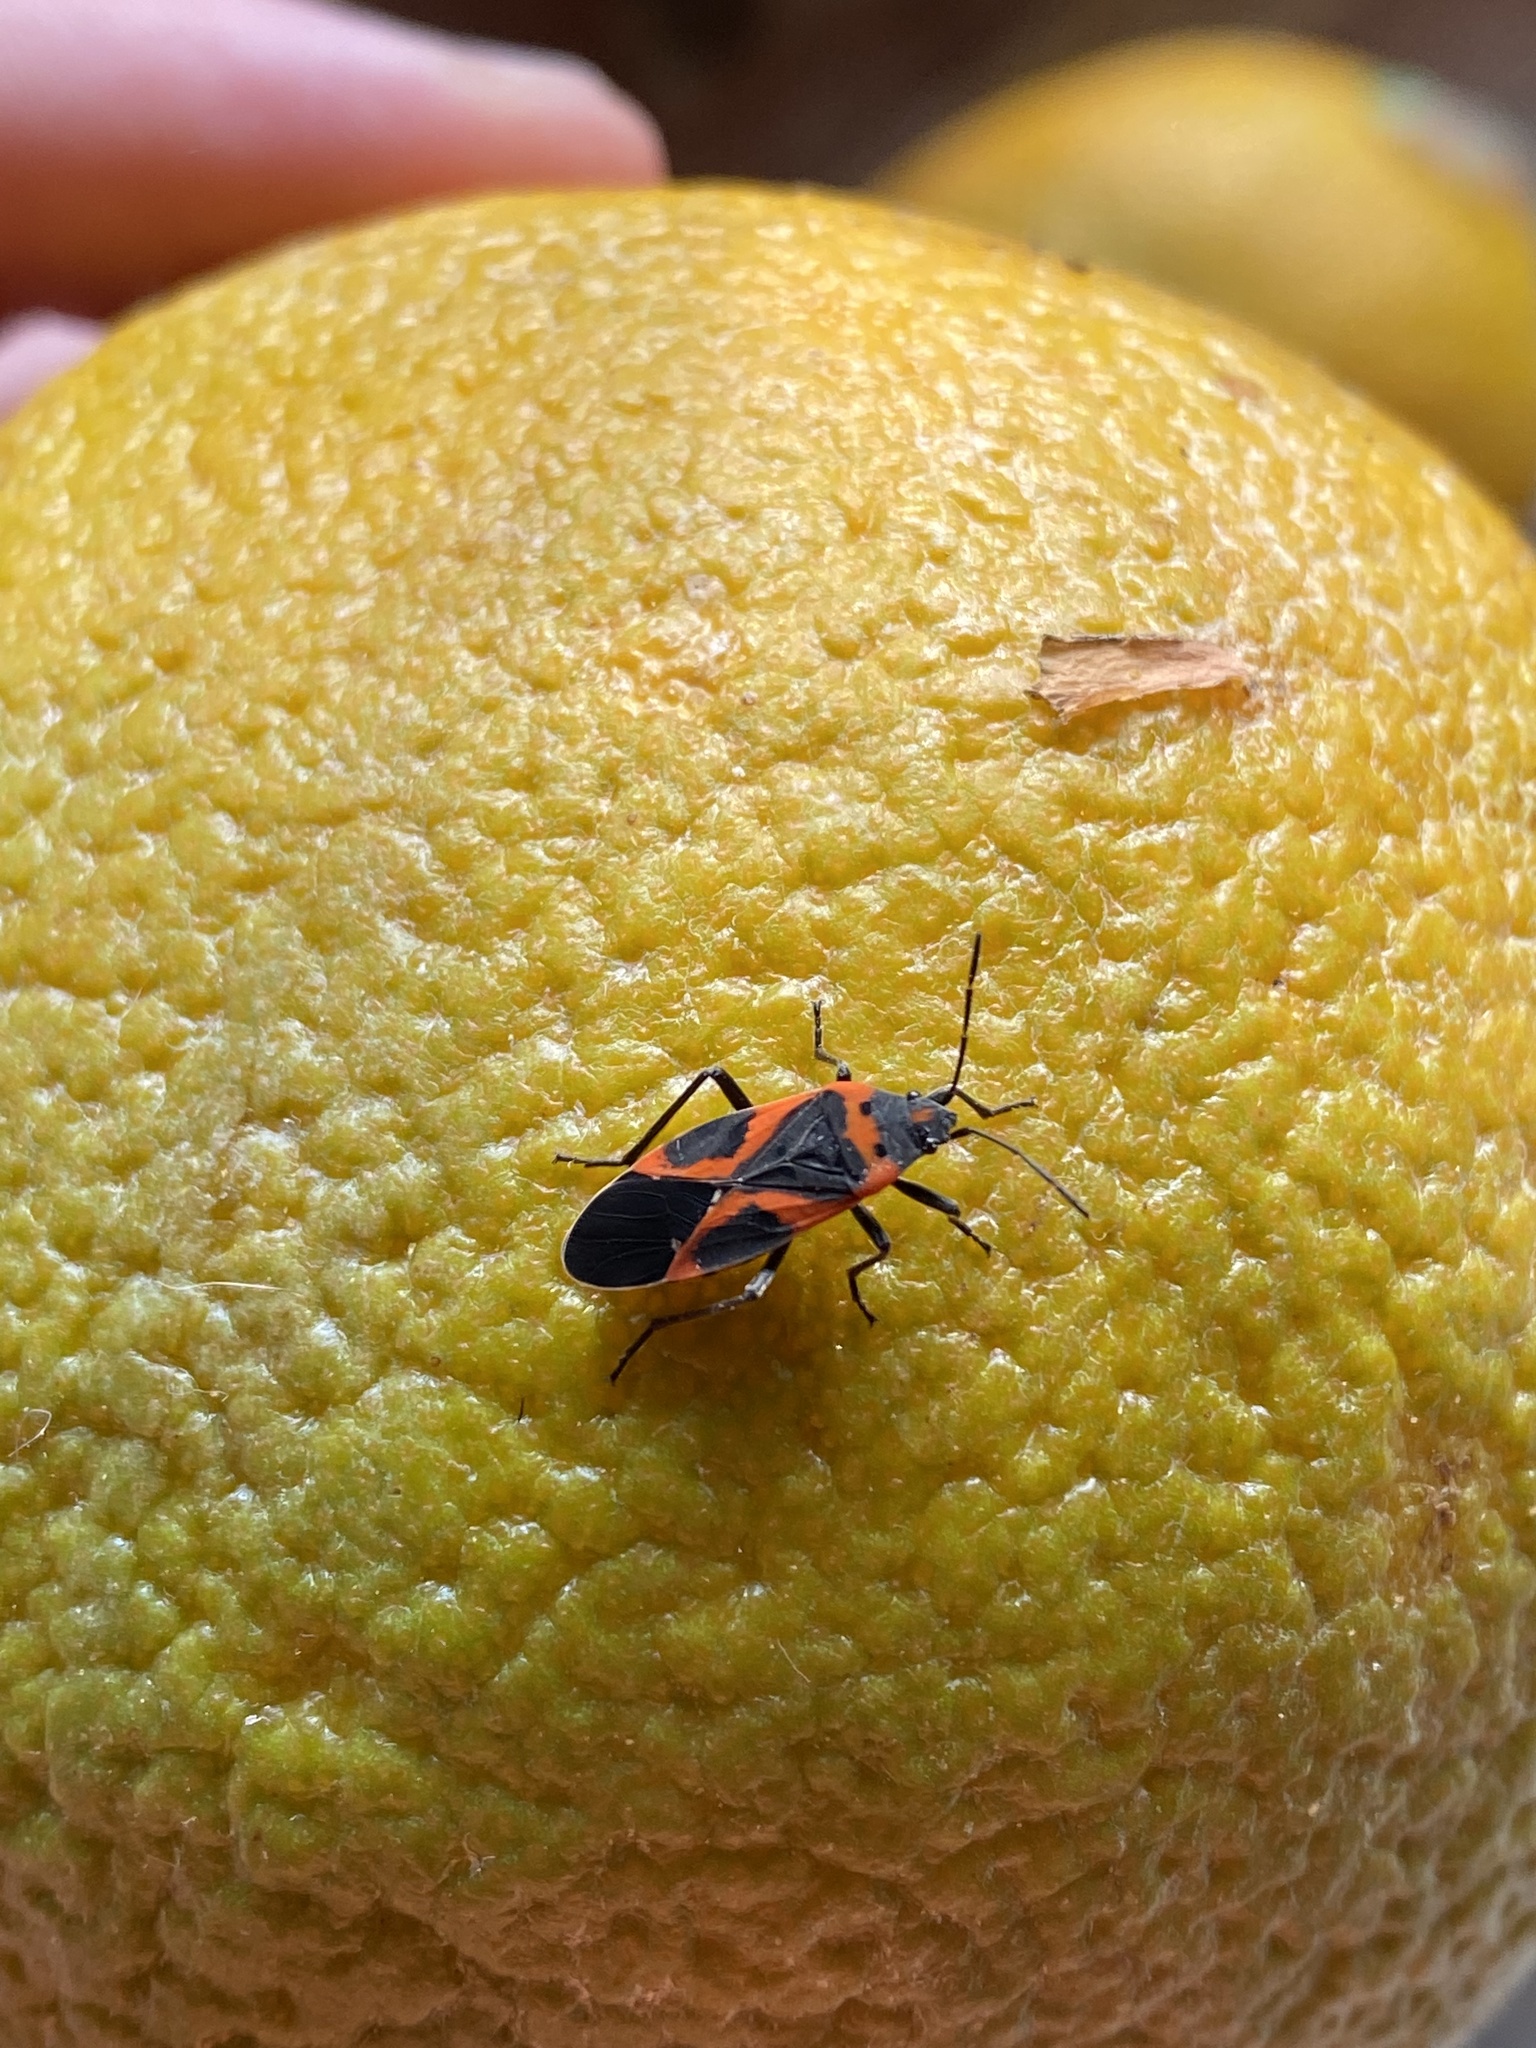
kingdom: Animalia
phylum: Arthropoda
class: Insecta
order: Hemiptera
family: Lygaeidae
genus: Lygaeus
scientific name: Lygaeus kalmii
